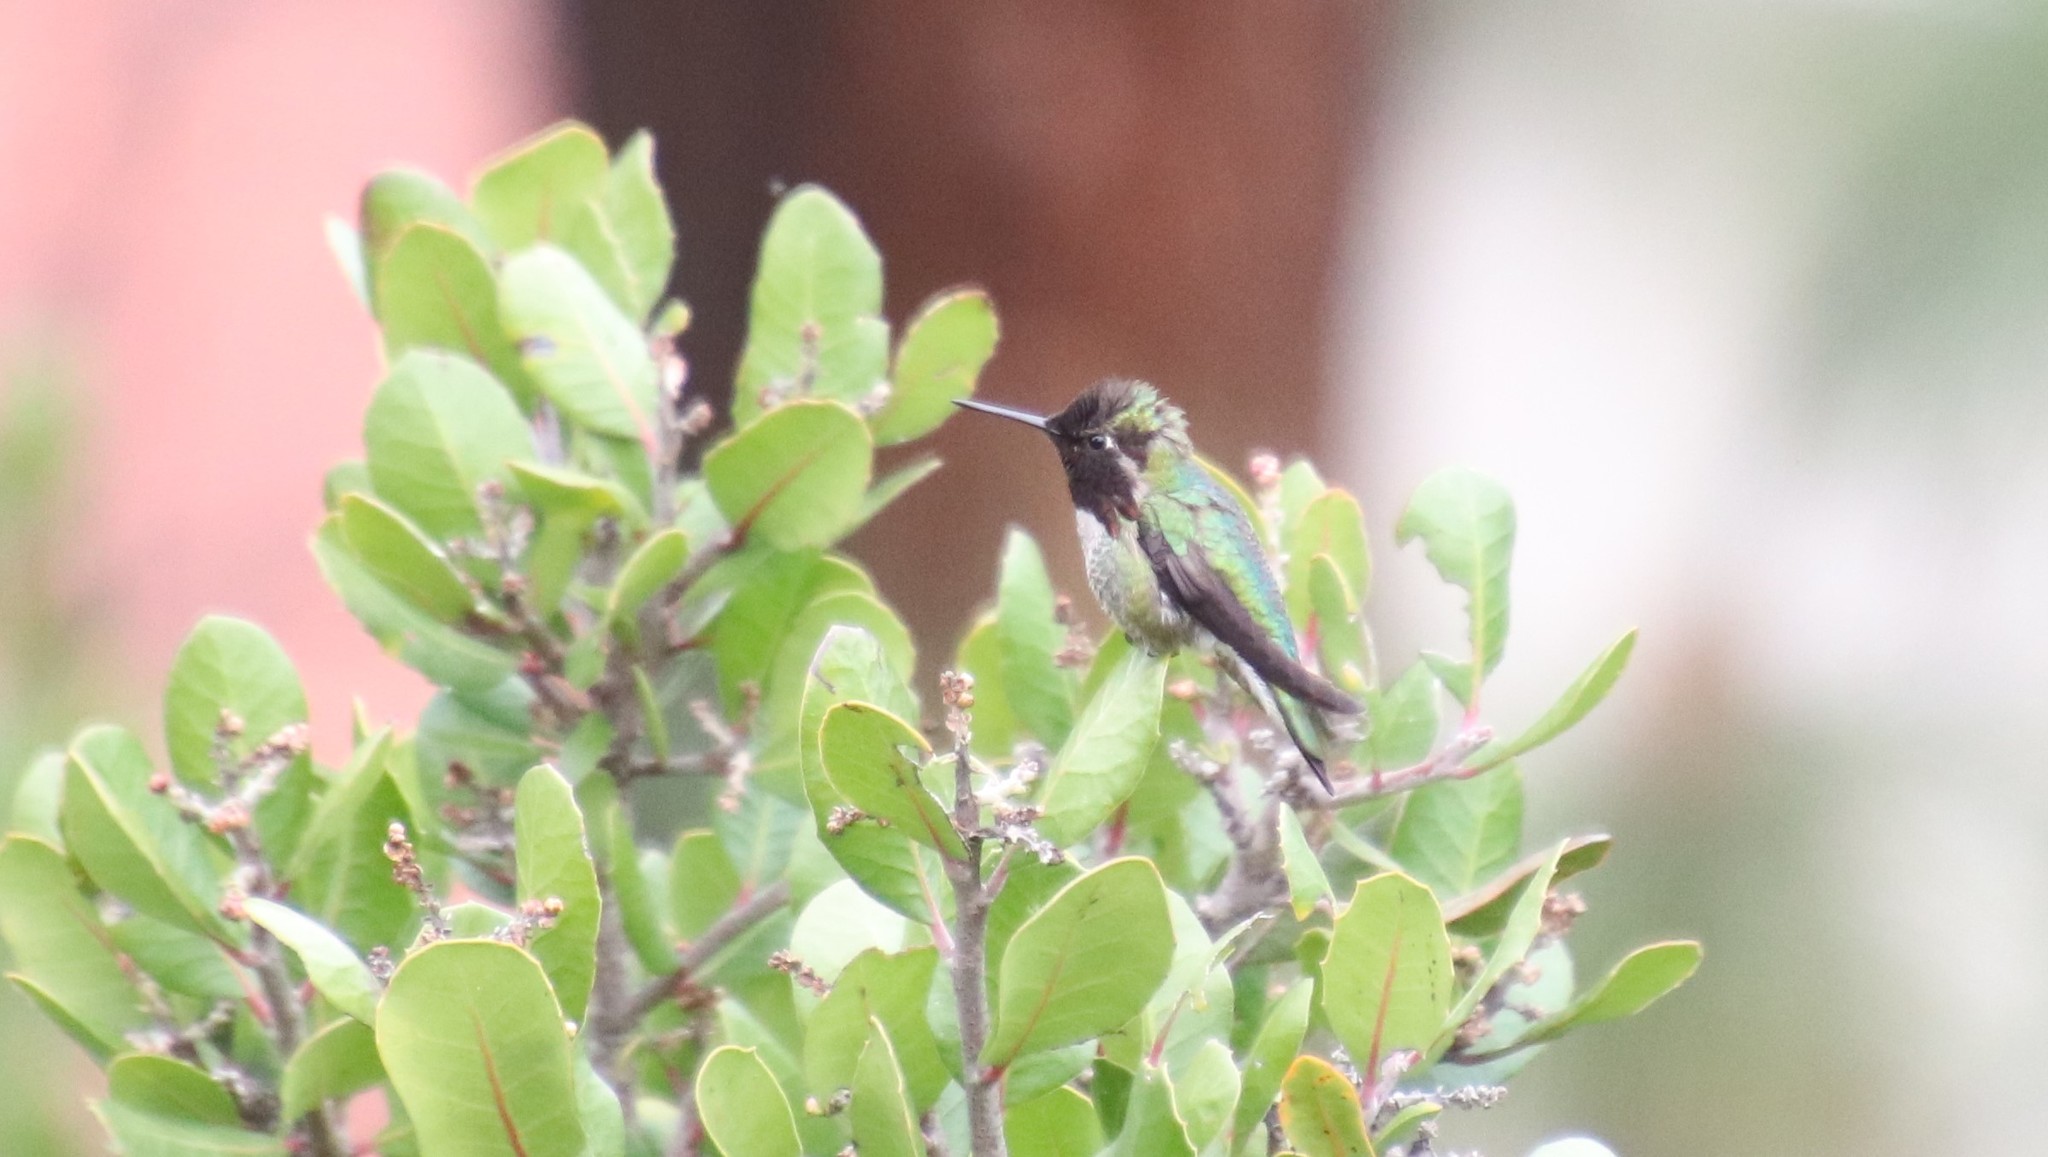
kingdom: Animalia
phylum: Chordata
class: Aves
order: Apodiformes
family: Trochilidae
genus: Calypte
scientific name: Calypte anna
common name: Anna's hummingbird
